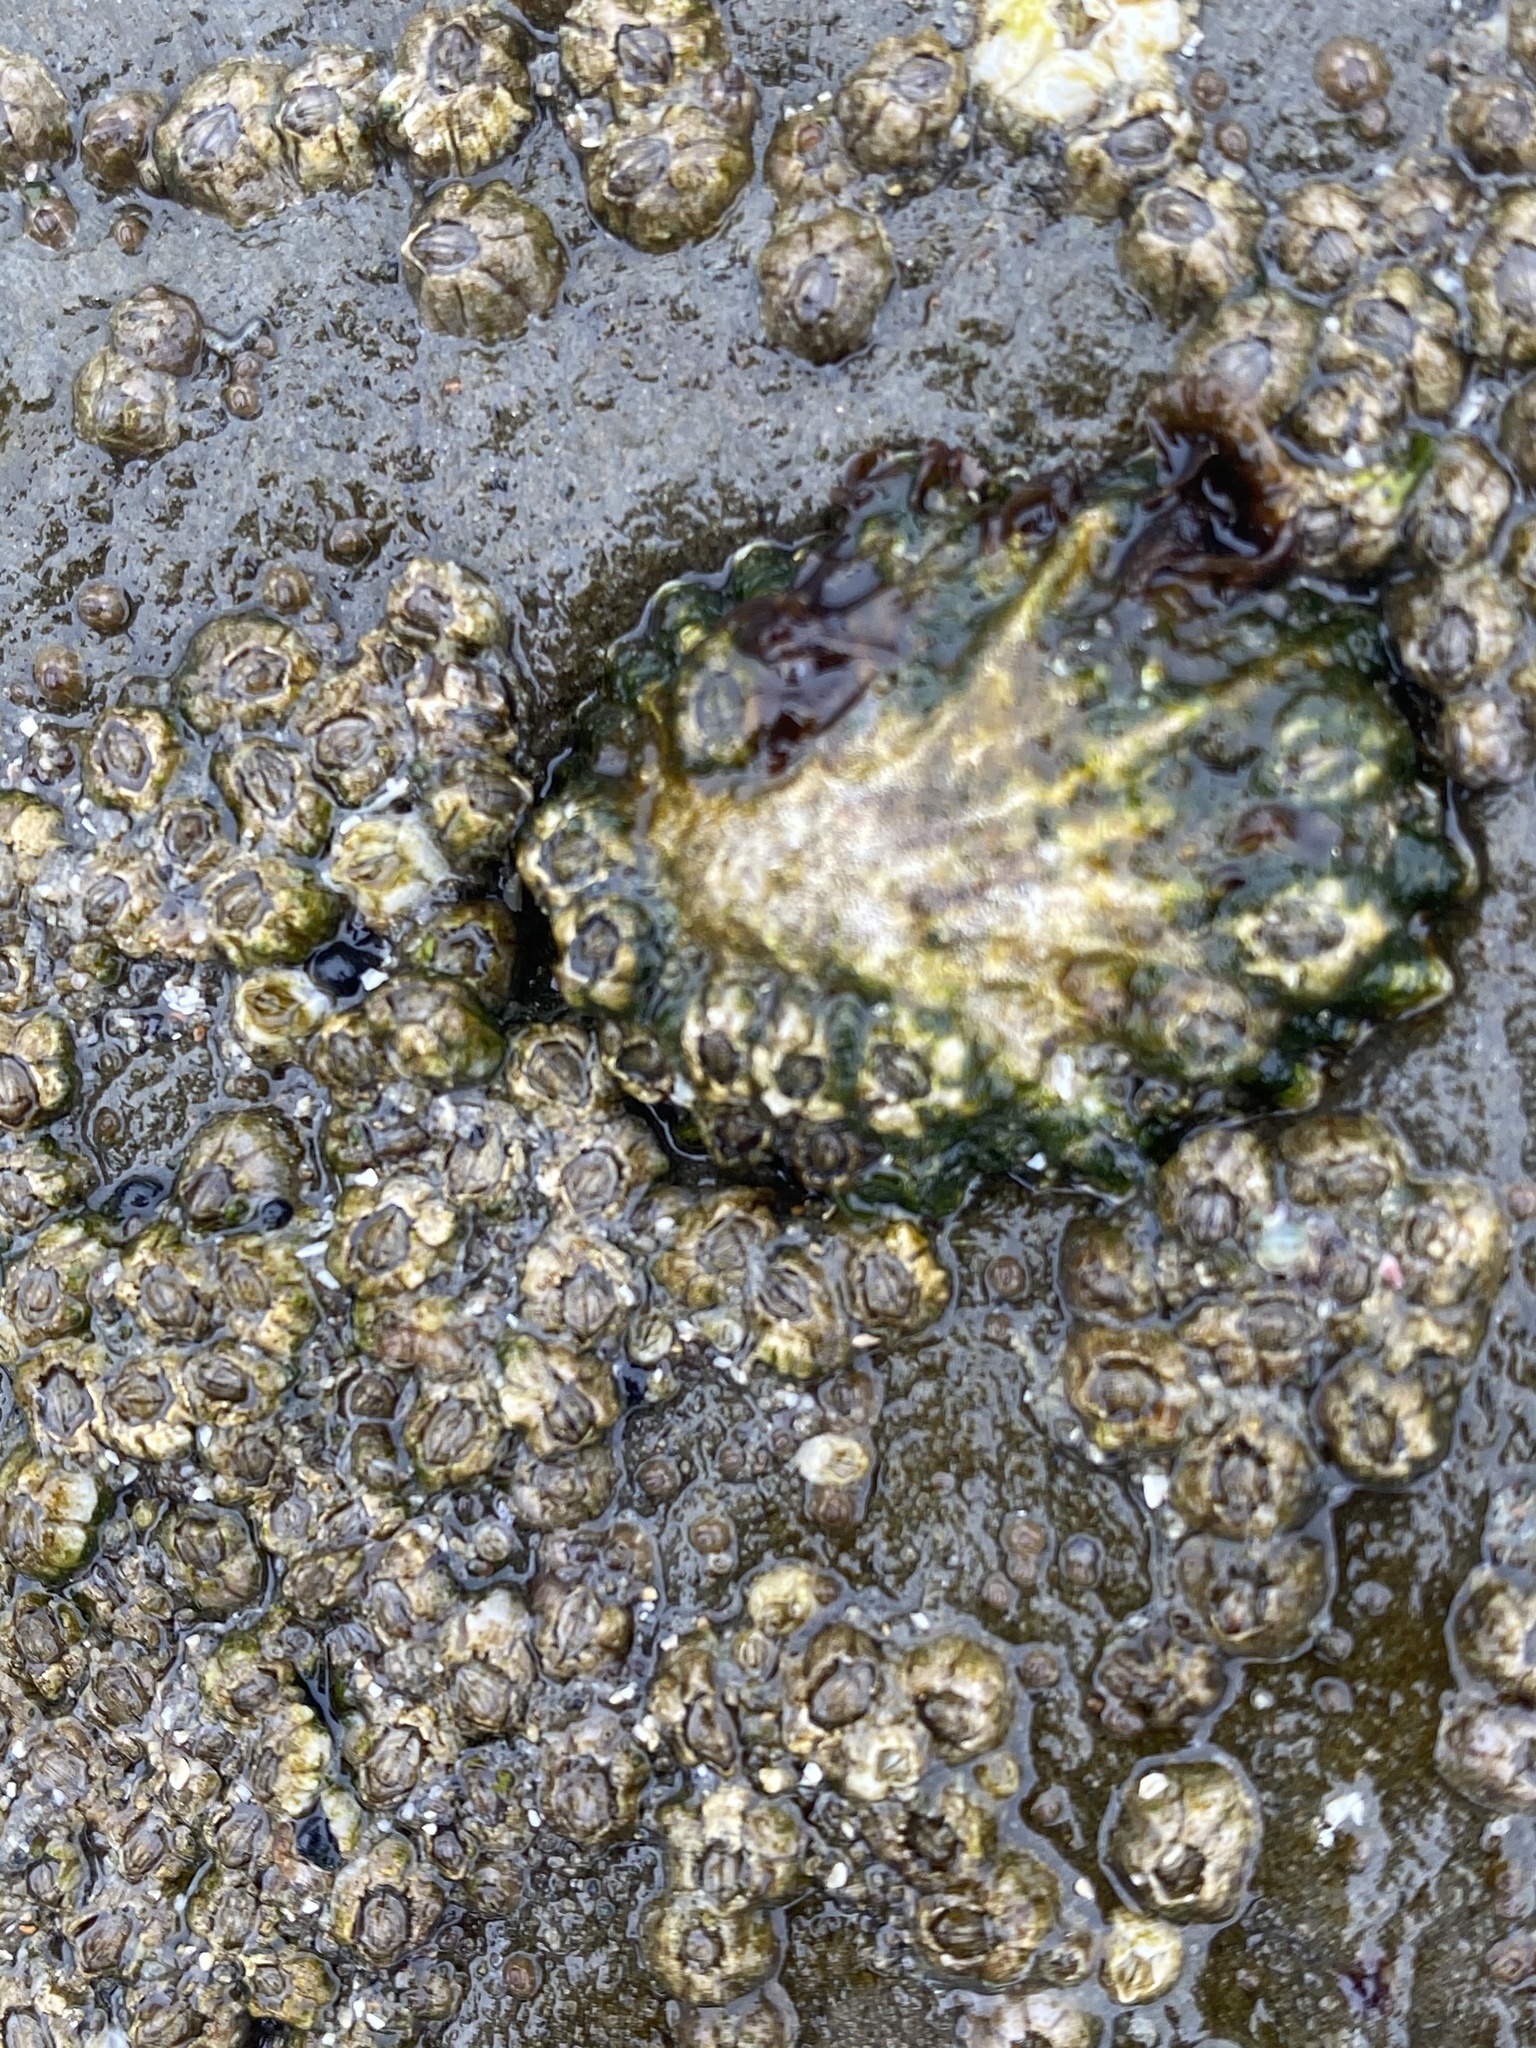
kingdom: Animalia
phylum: Mollusca
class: Gastropoda
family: Lottiidae
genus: Lottia
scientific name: Lottia scabra
